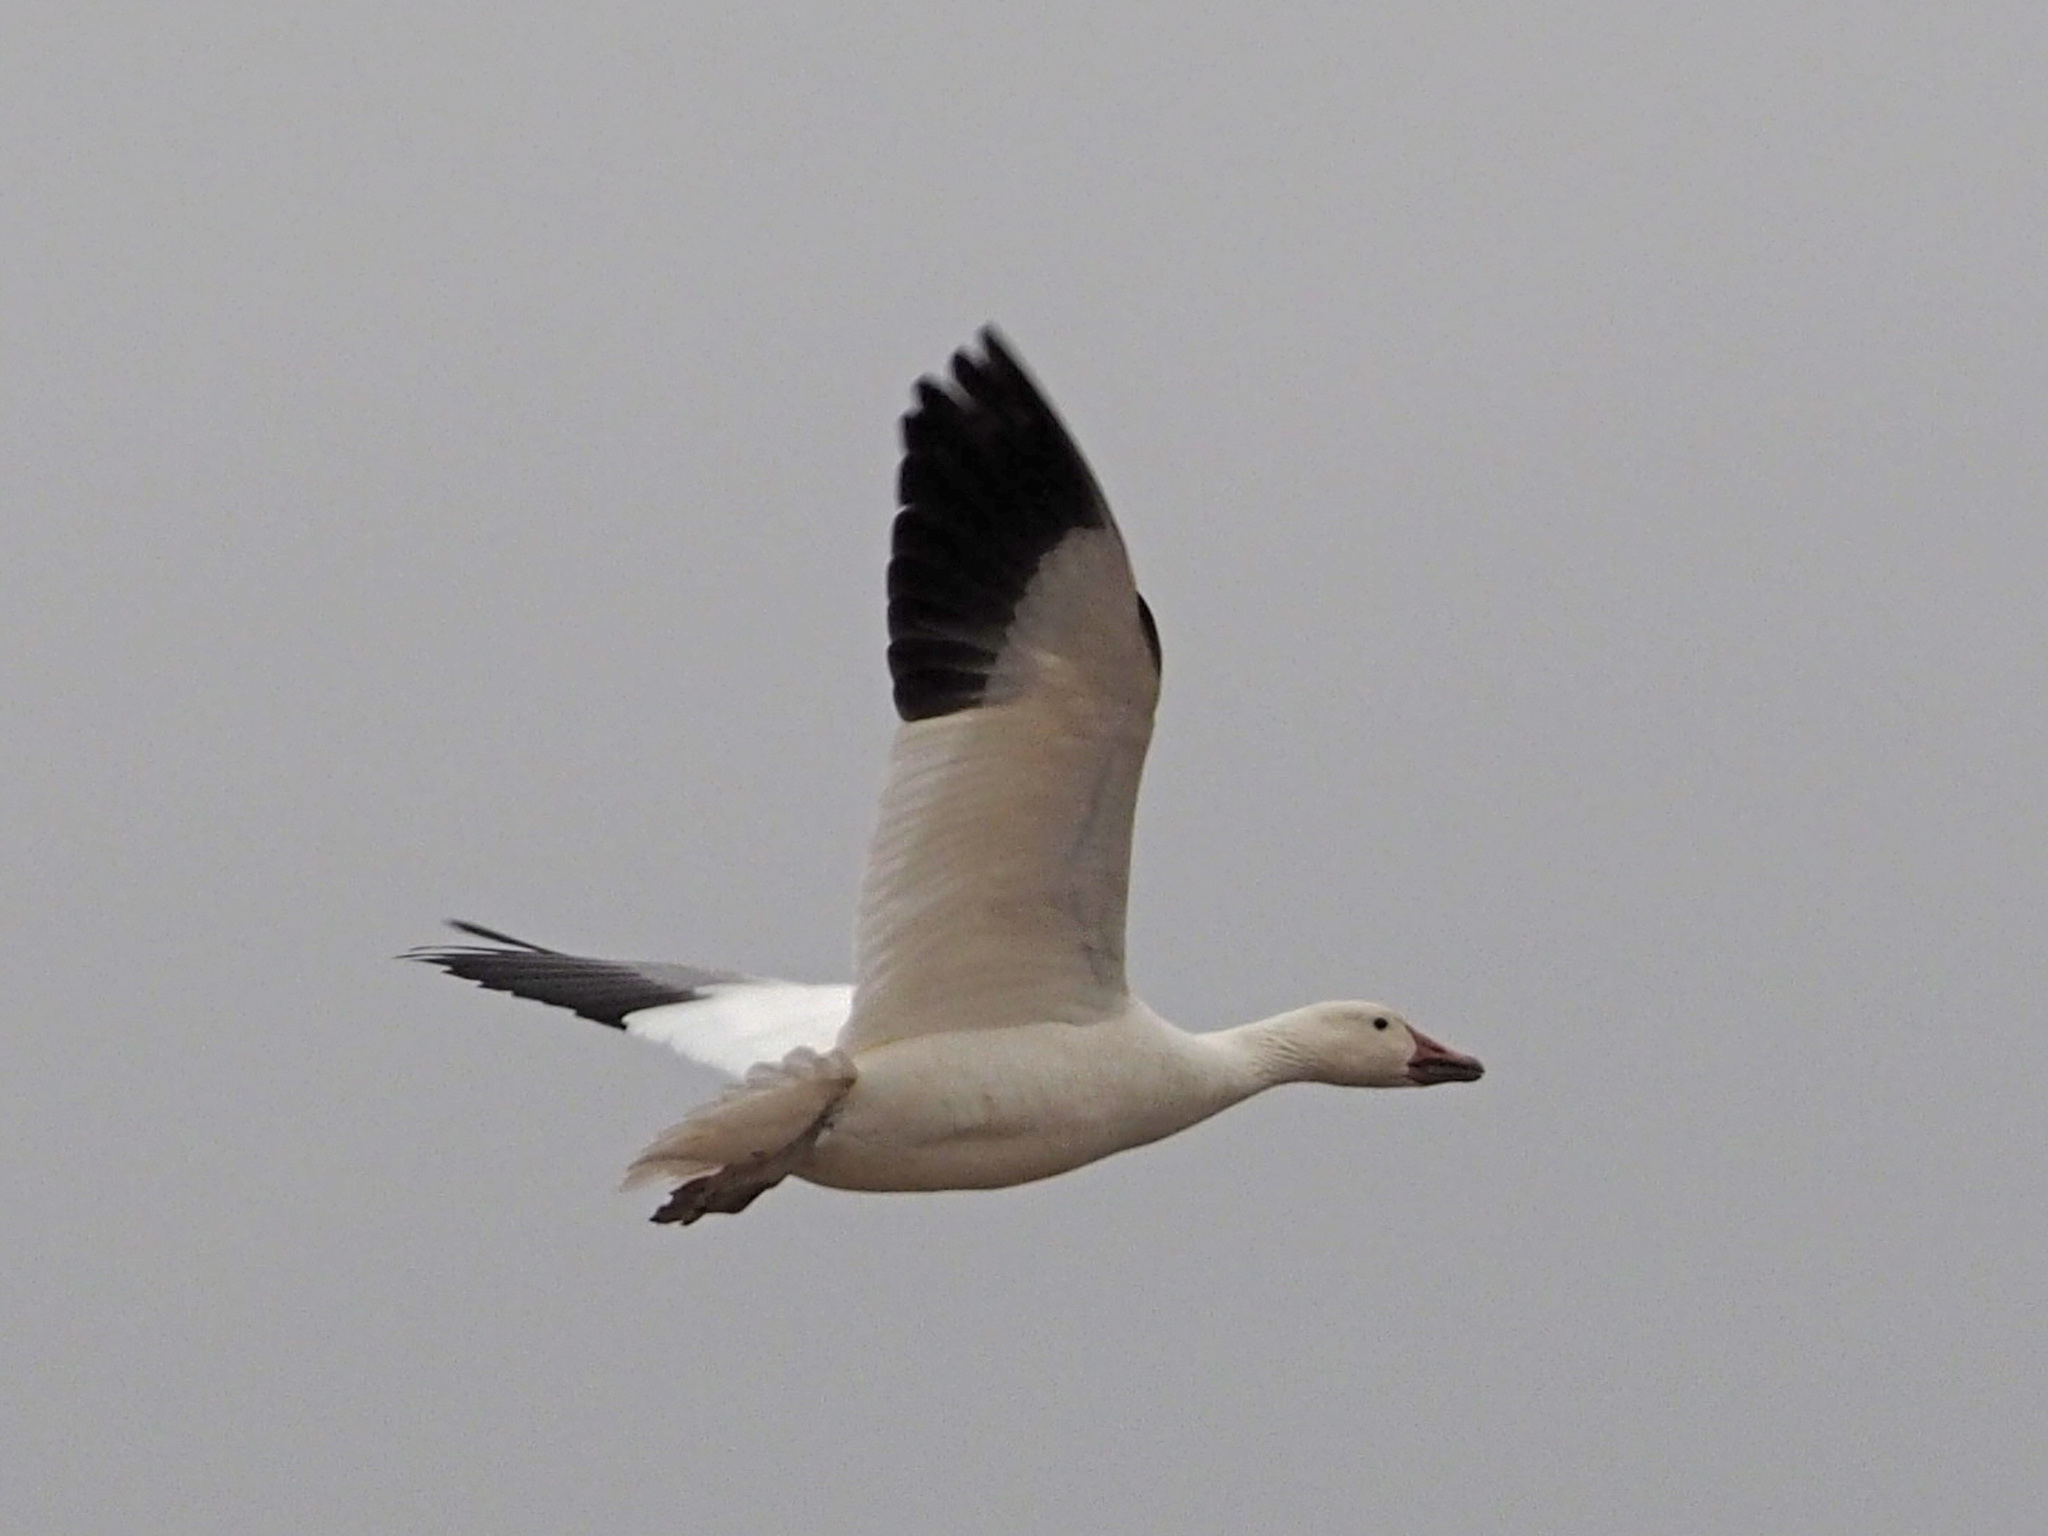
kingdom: Animalia
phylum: Chordata
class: Aves
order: Anseriformes
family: Anatidae
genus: Anser
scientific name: Anser caerulescens
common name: Snow goose
